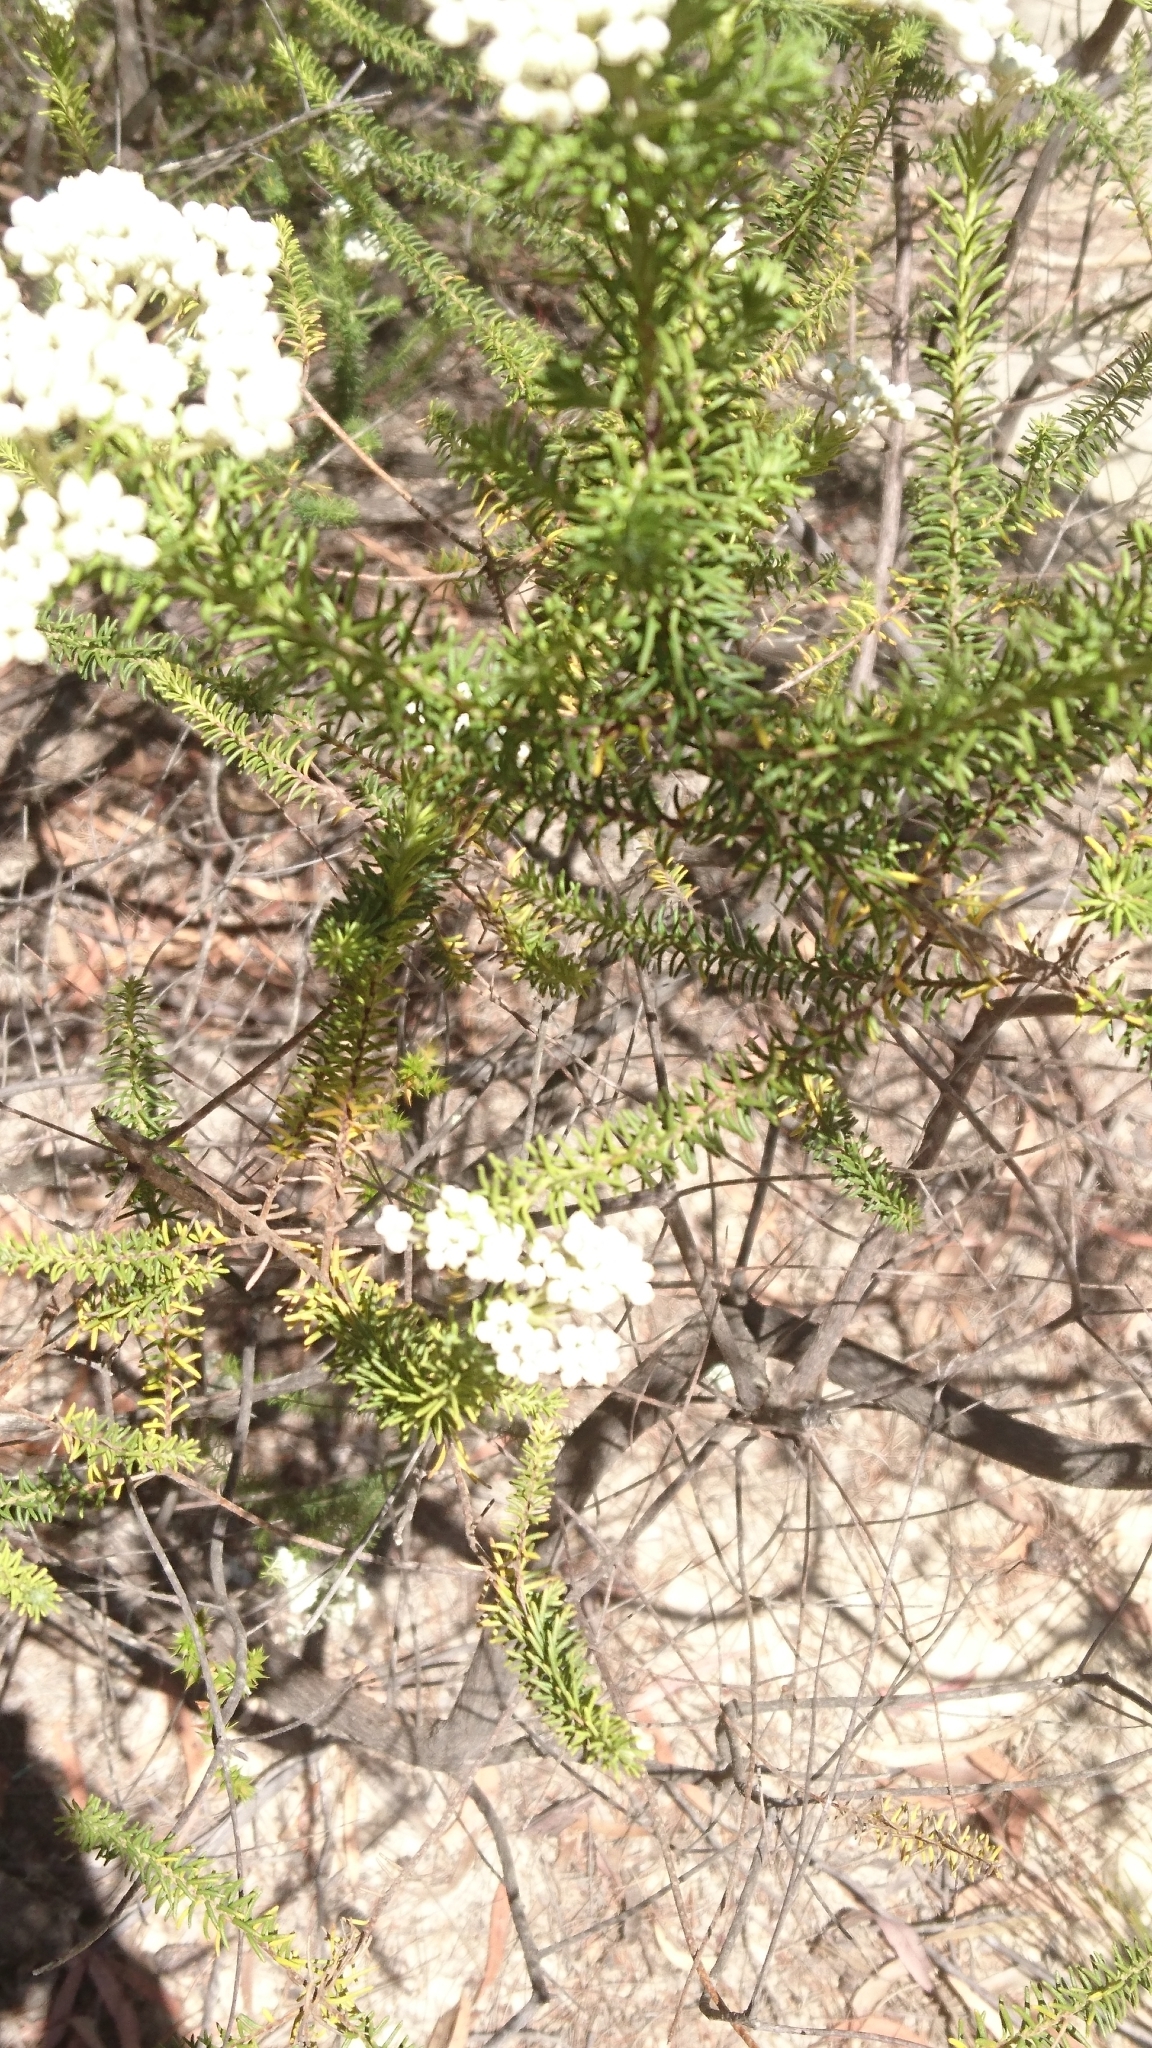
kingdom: Plantae
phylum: Tracheophyta
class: Magnoliopsida
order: Asterales
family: Asteraceae
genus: Ozothamnus
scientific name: Ozothamnus diosmifolius
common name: White-dogwood
